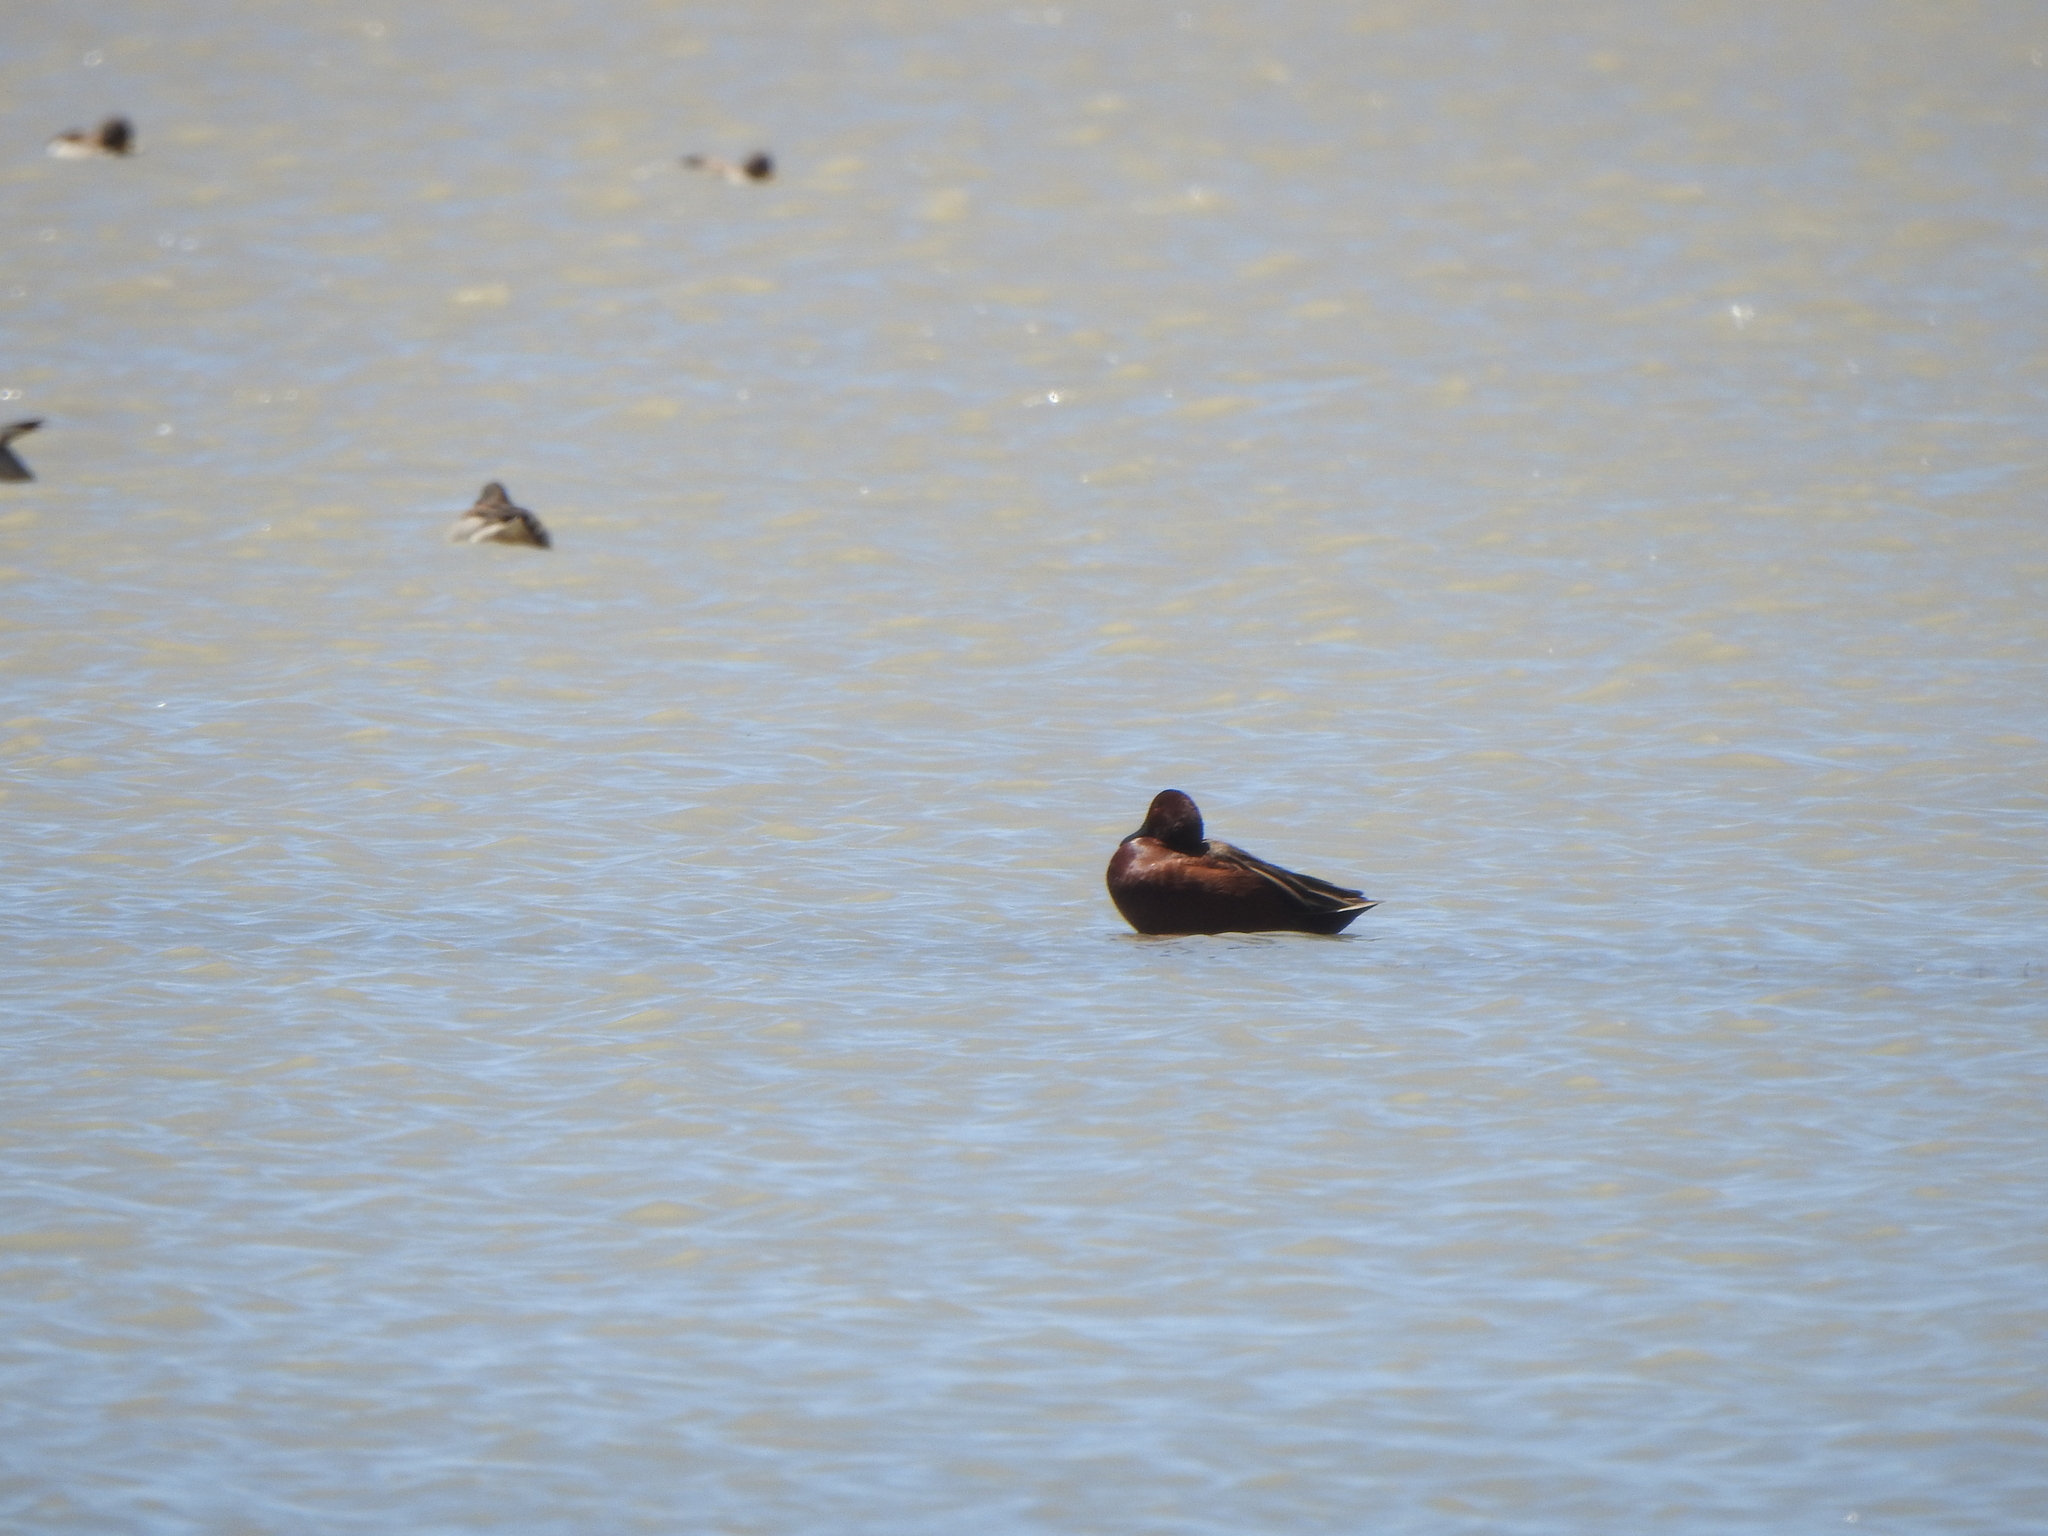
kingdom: Animalia
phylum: Chordata
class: Aves
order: Anseriformes
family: Anatidae
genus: Spatula
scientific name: Spatula cyanoptera
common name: Cinnamon teal
